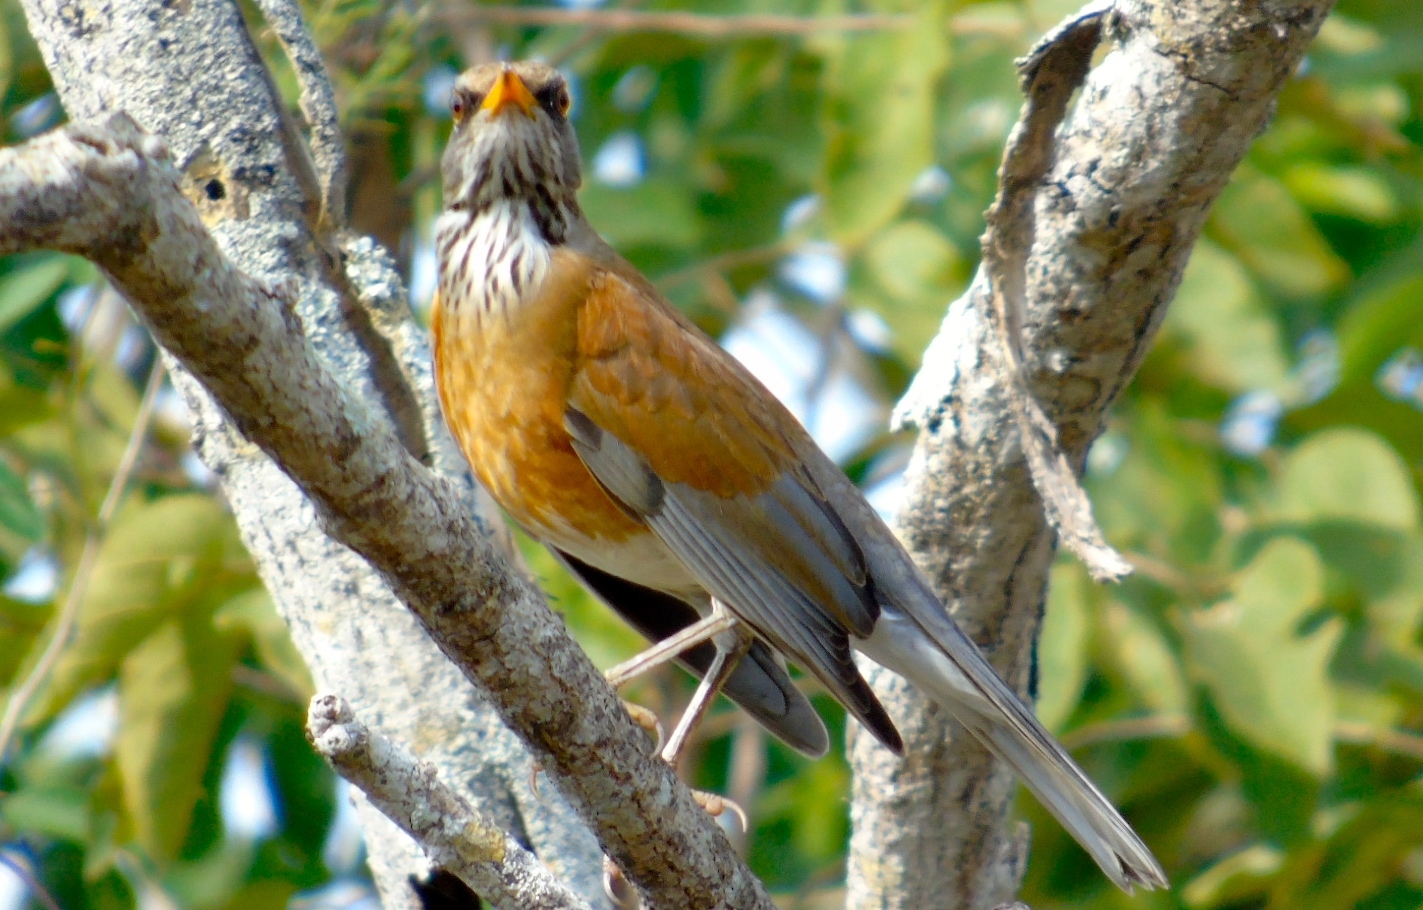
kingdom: Animalia
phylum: Chordata
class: Aves
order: Passeriformes
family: Turdidae
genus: Turdus
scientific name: Turdus rufopalliatus
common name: Rufous-backed robin
